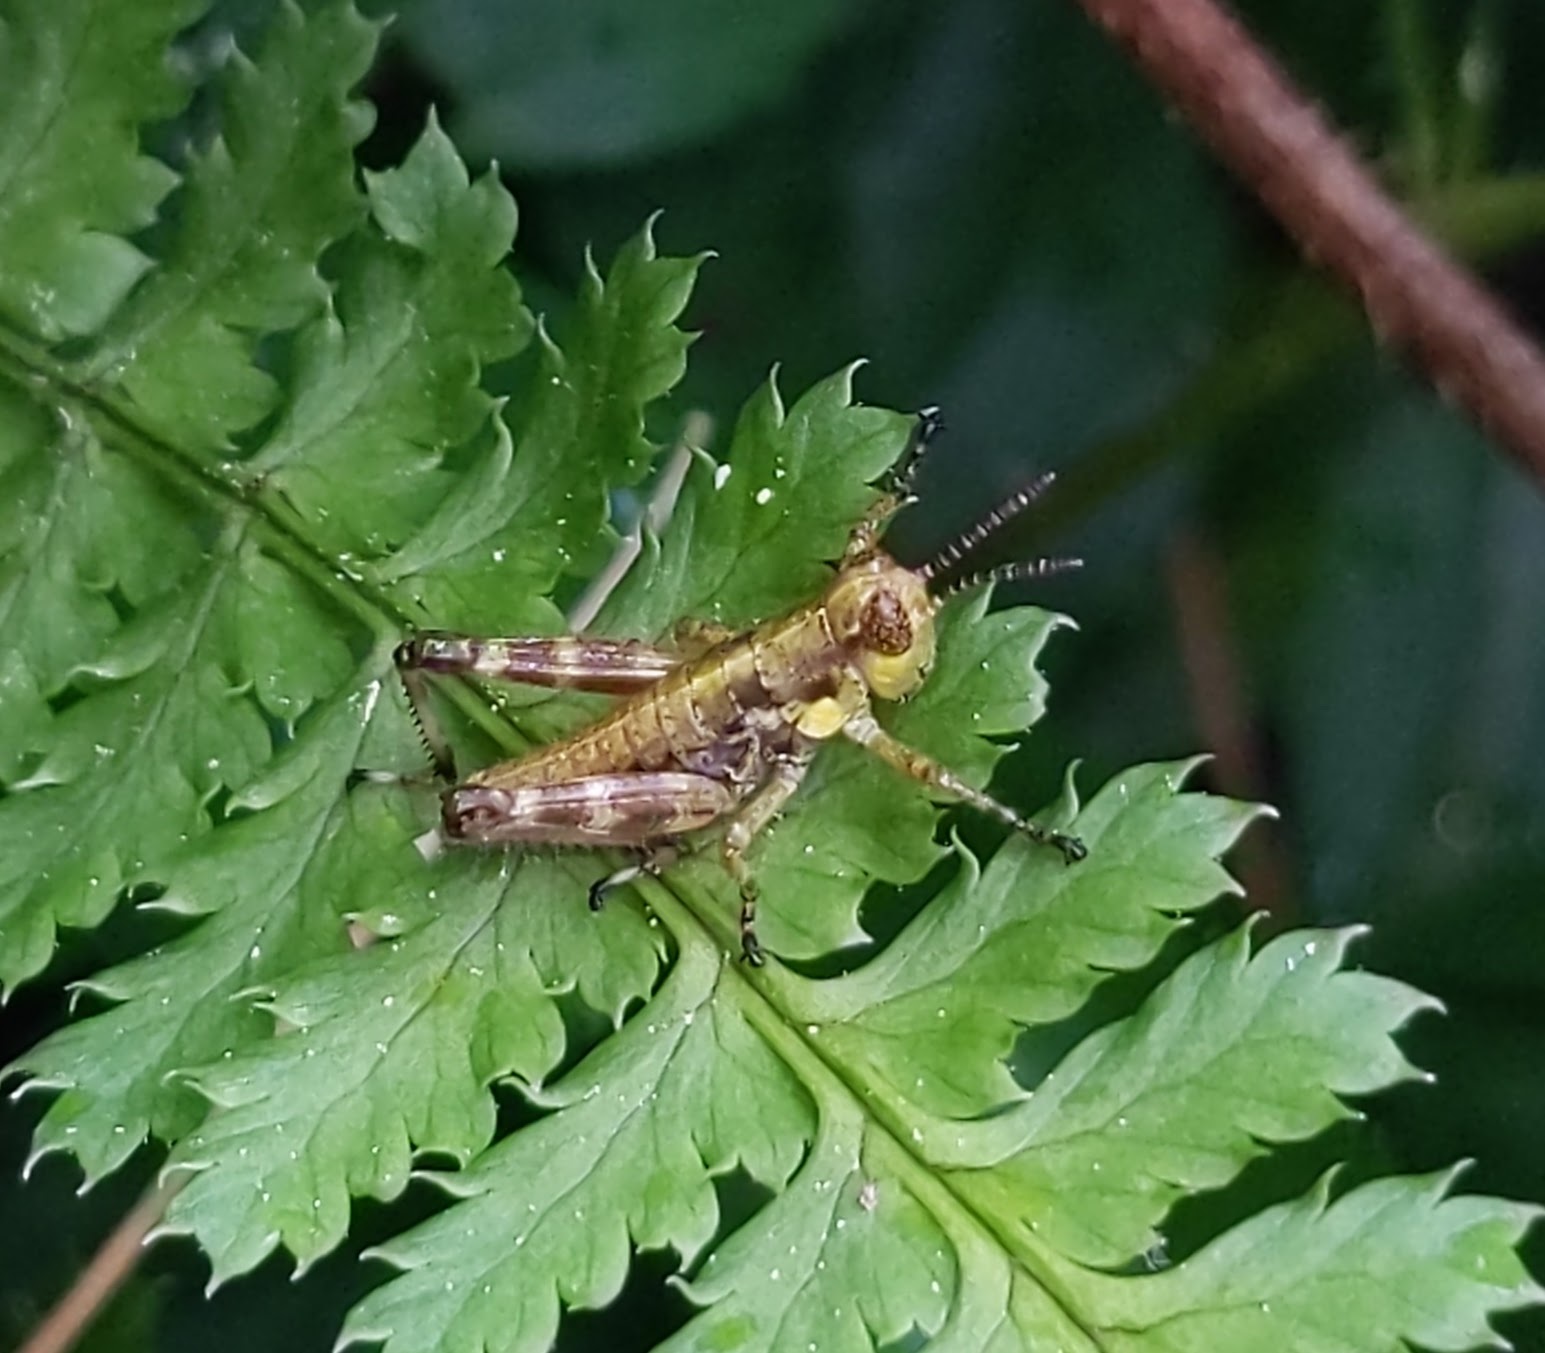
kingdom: Animalia
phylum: Arthropoda
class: Insecta
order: Orthoptera
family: Acrididae
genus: Booneacris
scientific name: Booneacris glacialis
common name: Wingless mountain grasshopper
